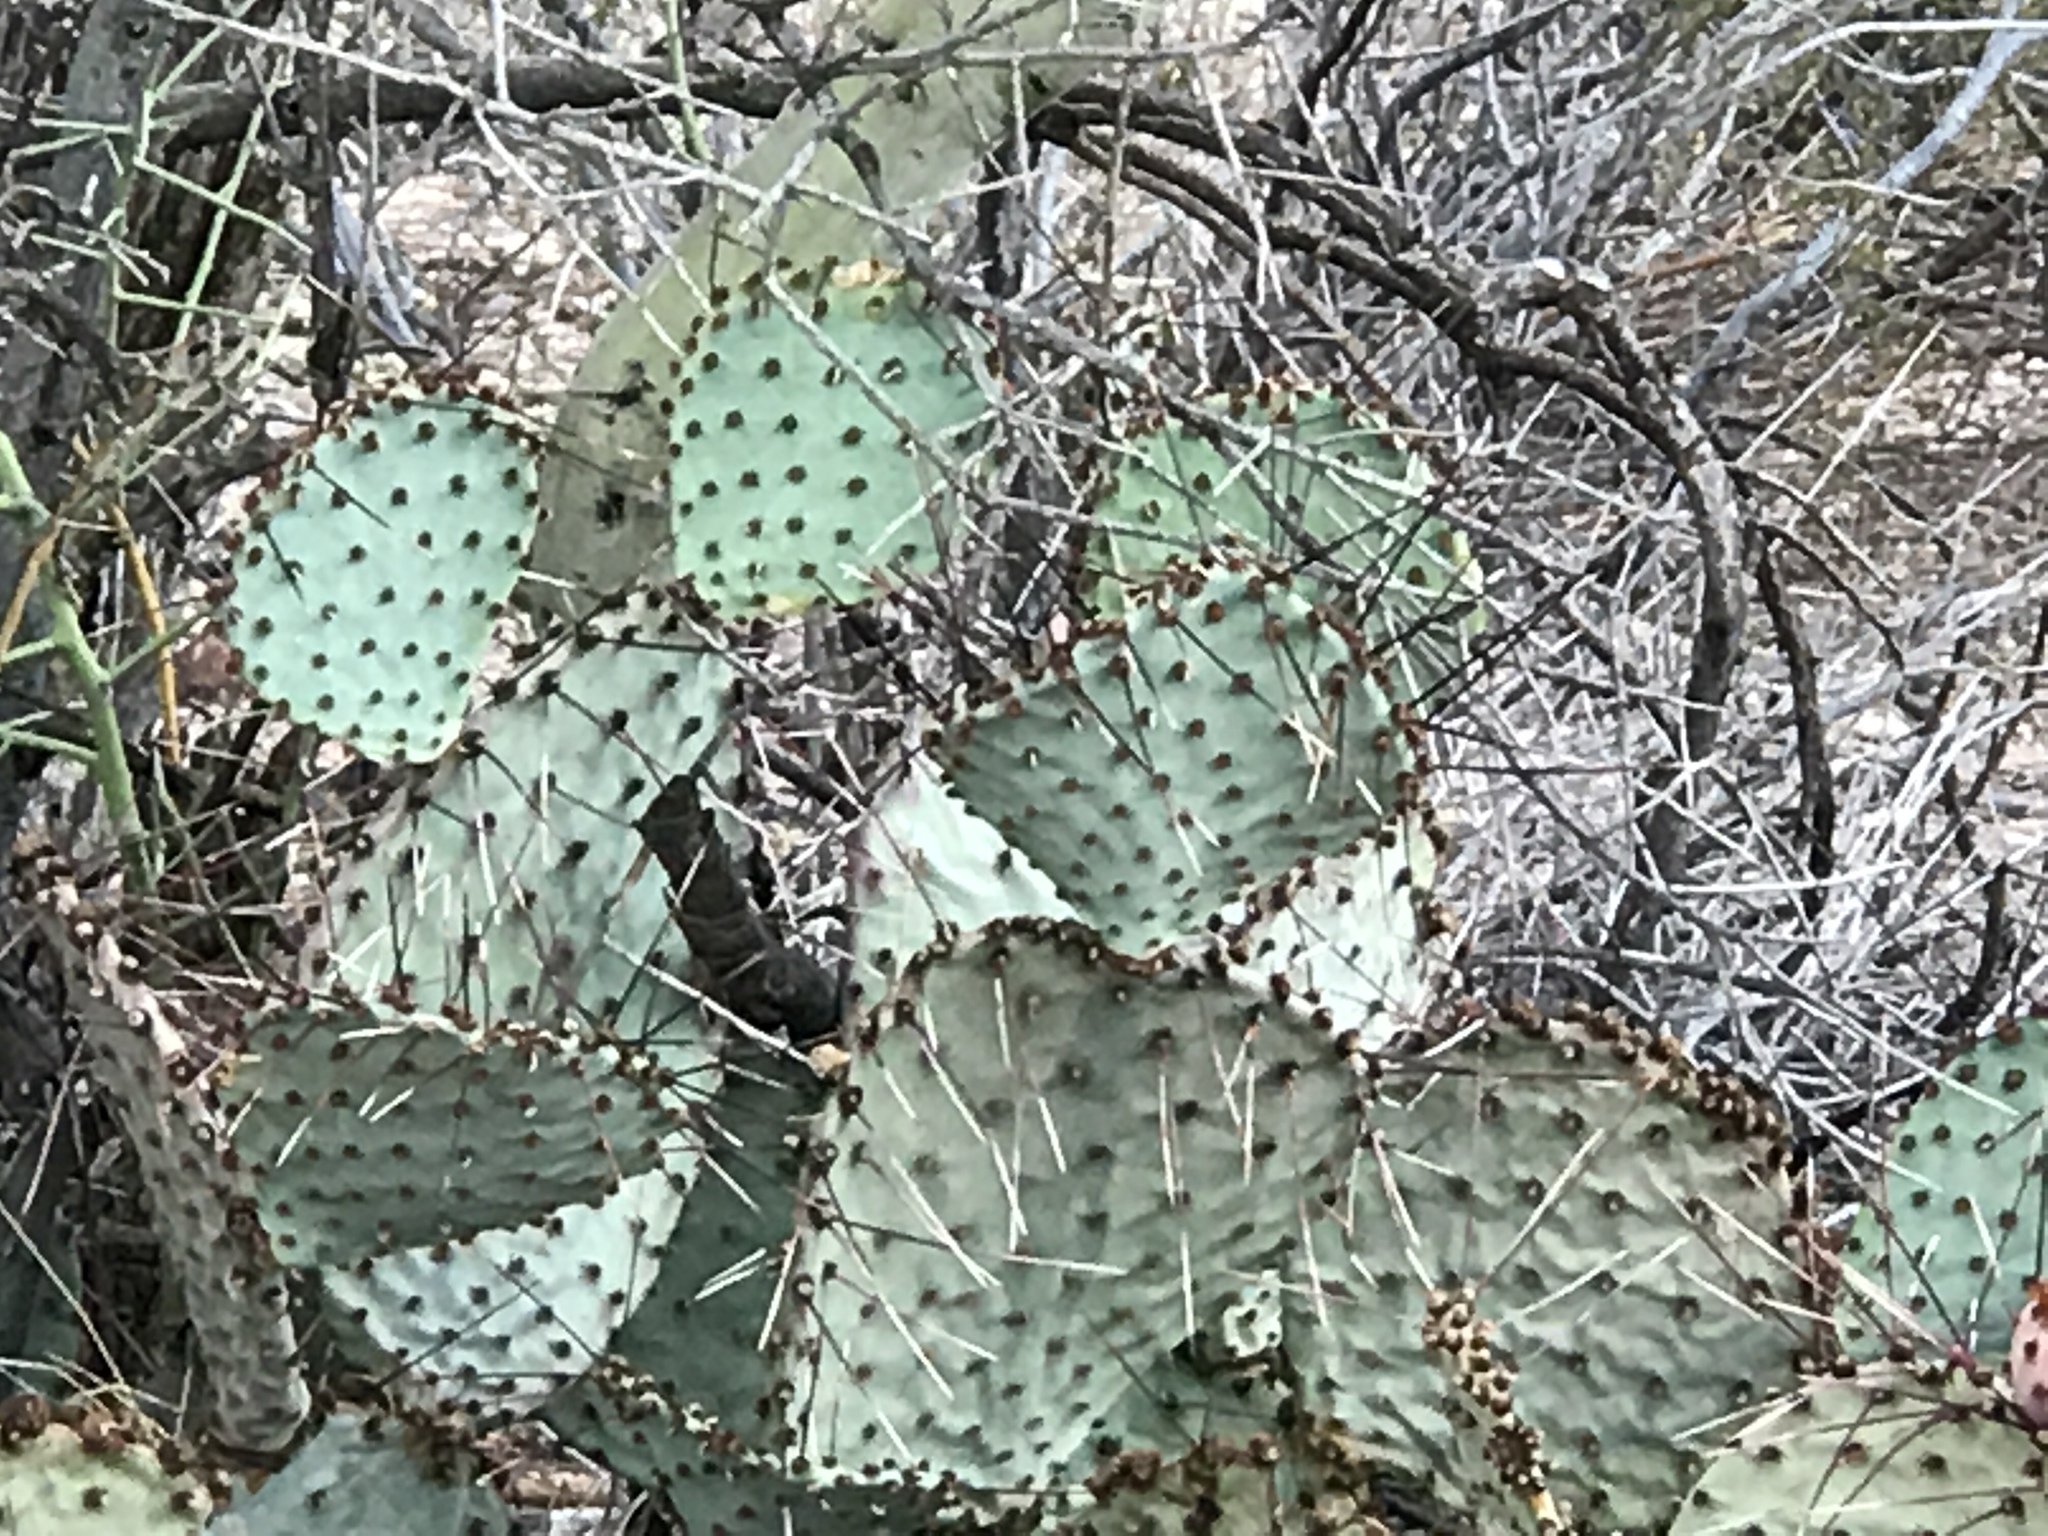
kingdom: Plantae
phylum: Tracheophyta
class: Magnoliopsida
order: Caryophyllales
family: Cactaceae
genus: Opuntia
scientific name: Opuntia macrocentra
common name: Purple prickly-pear
